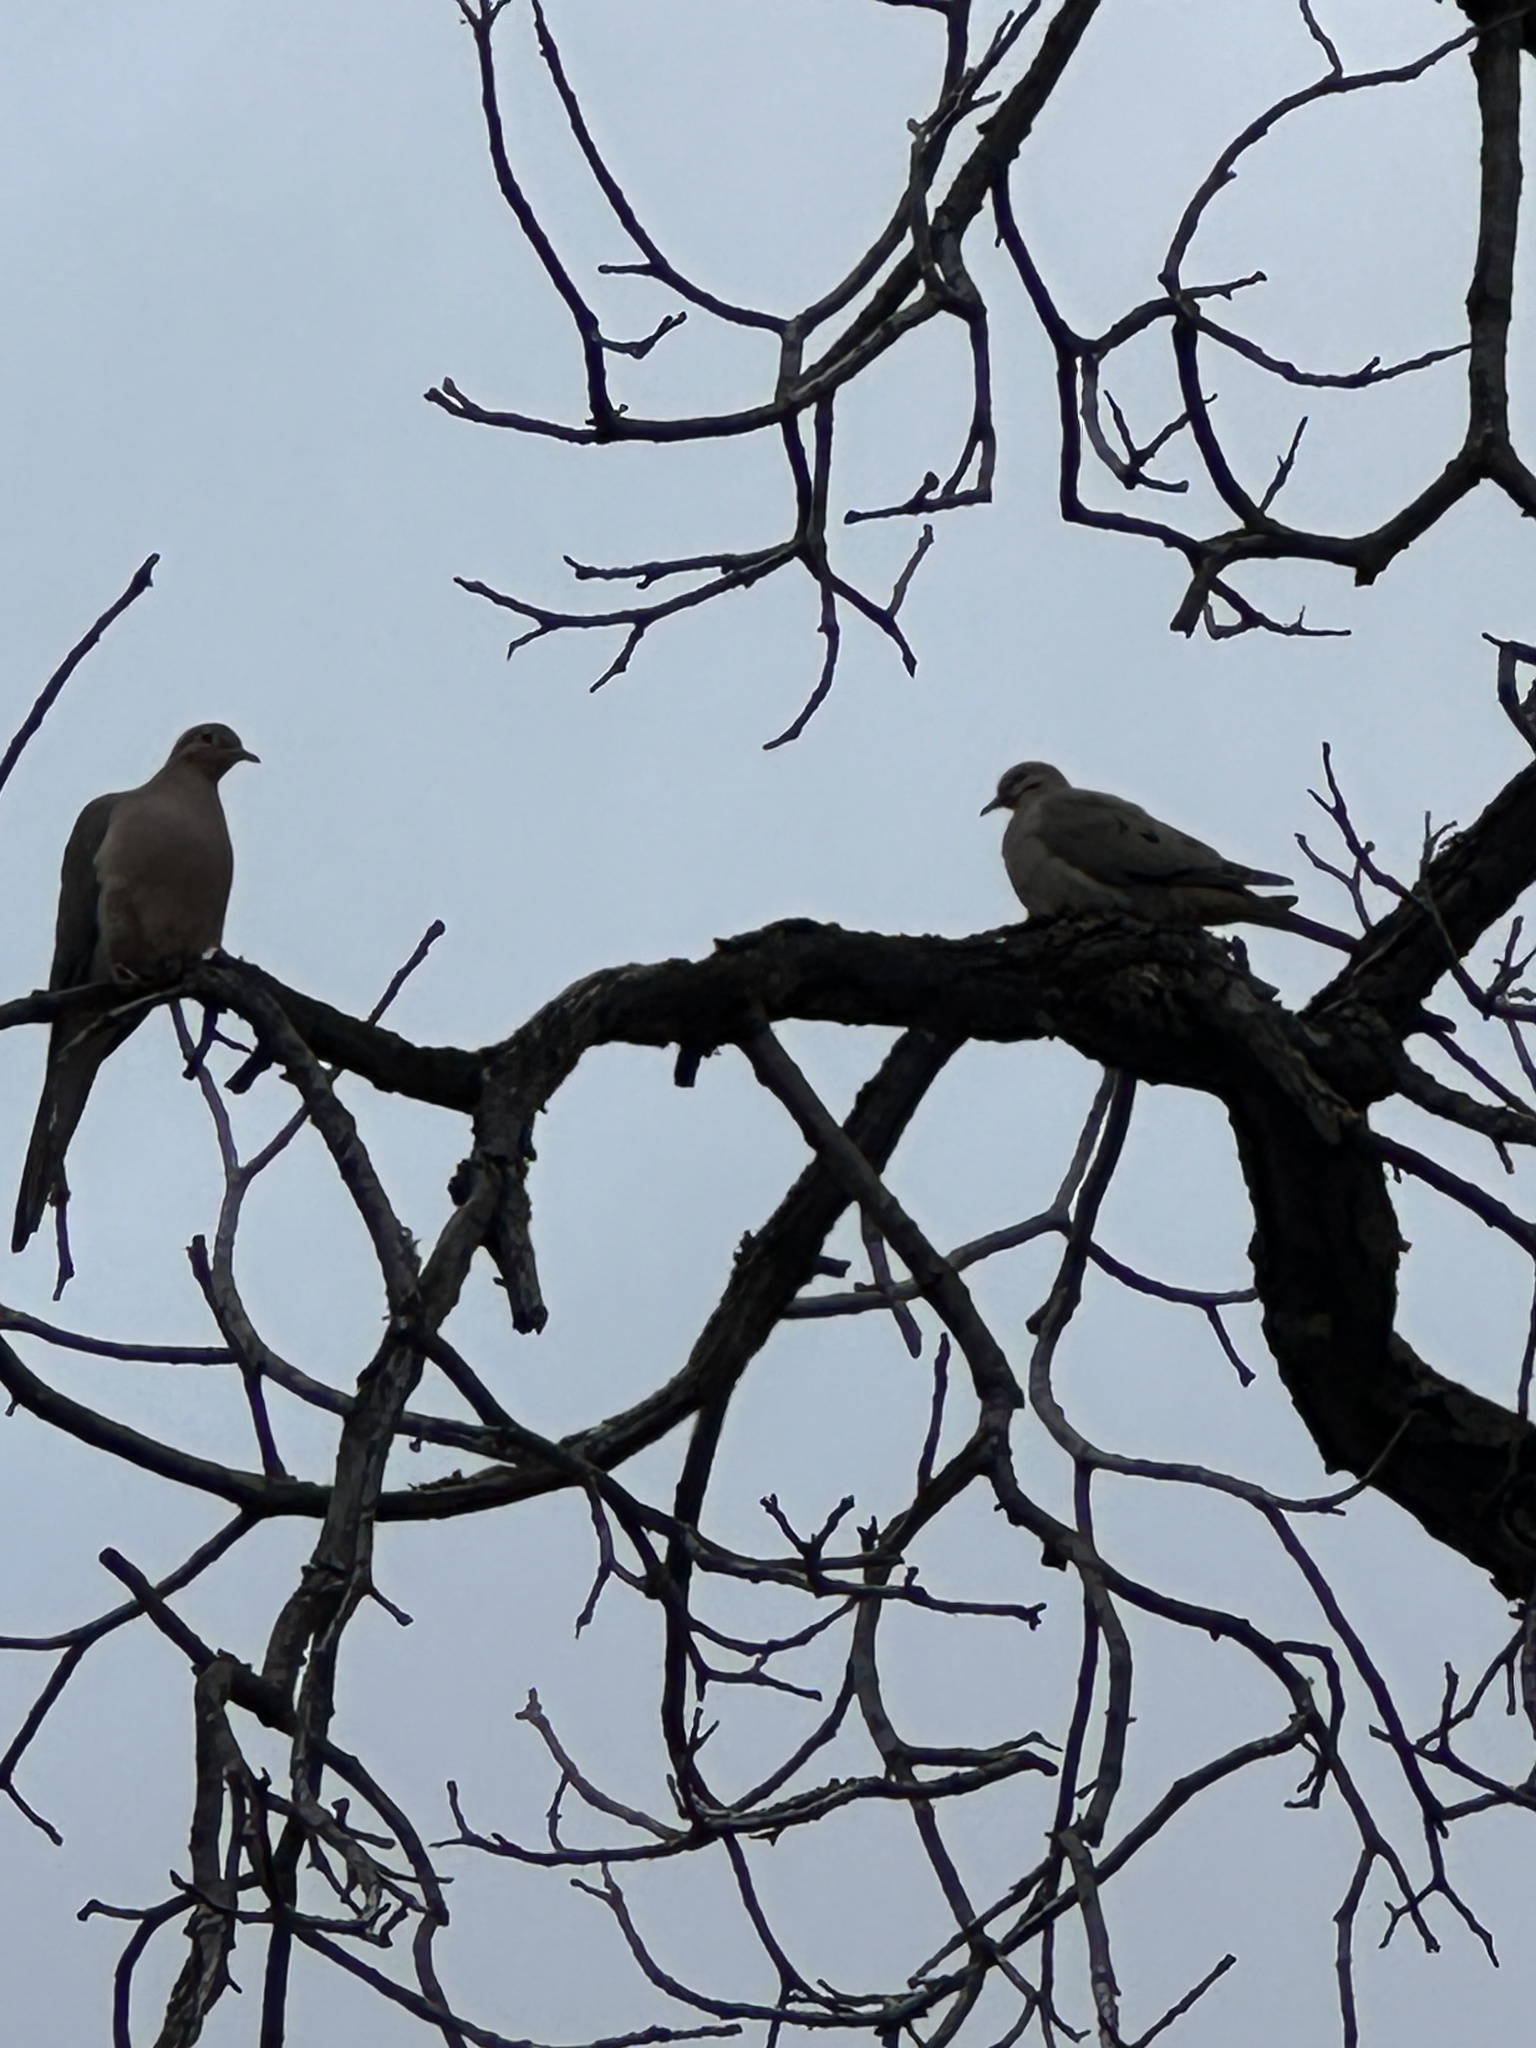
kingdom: Animalia
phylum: Chordata
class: Aves
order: Columbiformes
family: Columbidae
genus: Zenaida
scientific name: Zenaida macroura
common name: Mourning dove
